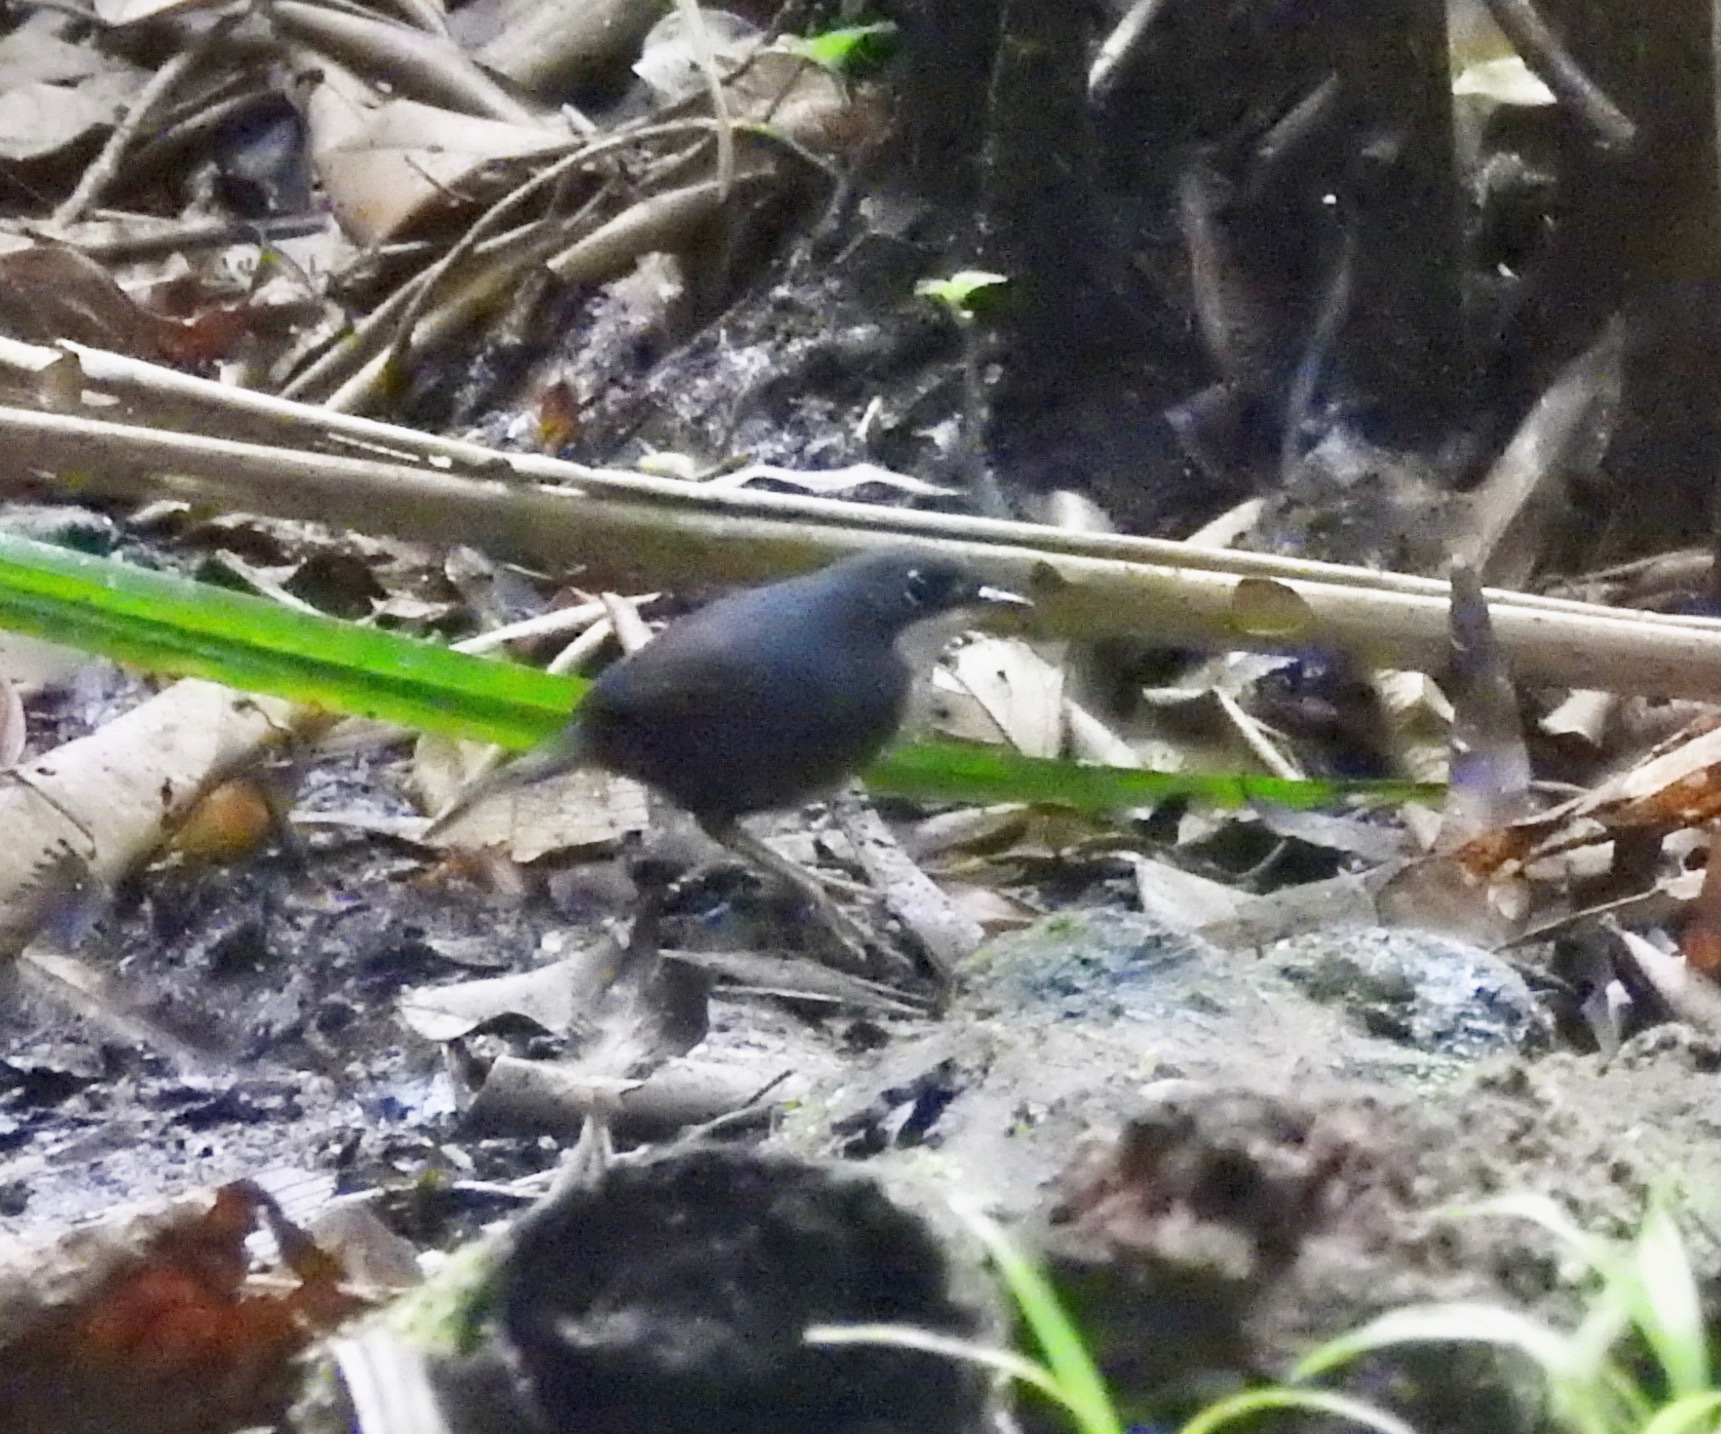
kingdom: Animalia
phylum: Chordata
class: Aves
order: Passeriformes
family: Rhinocryptidae
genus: Eleoscytalopus
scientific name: Eleoscytalopus psychopompus
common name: Bahia tapaculo
